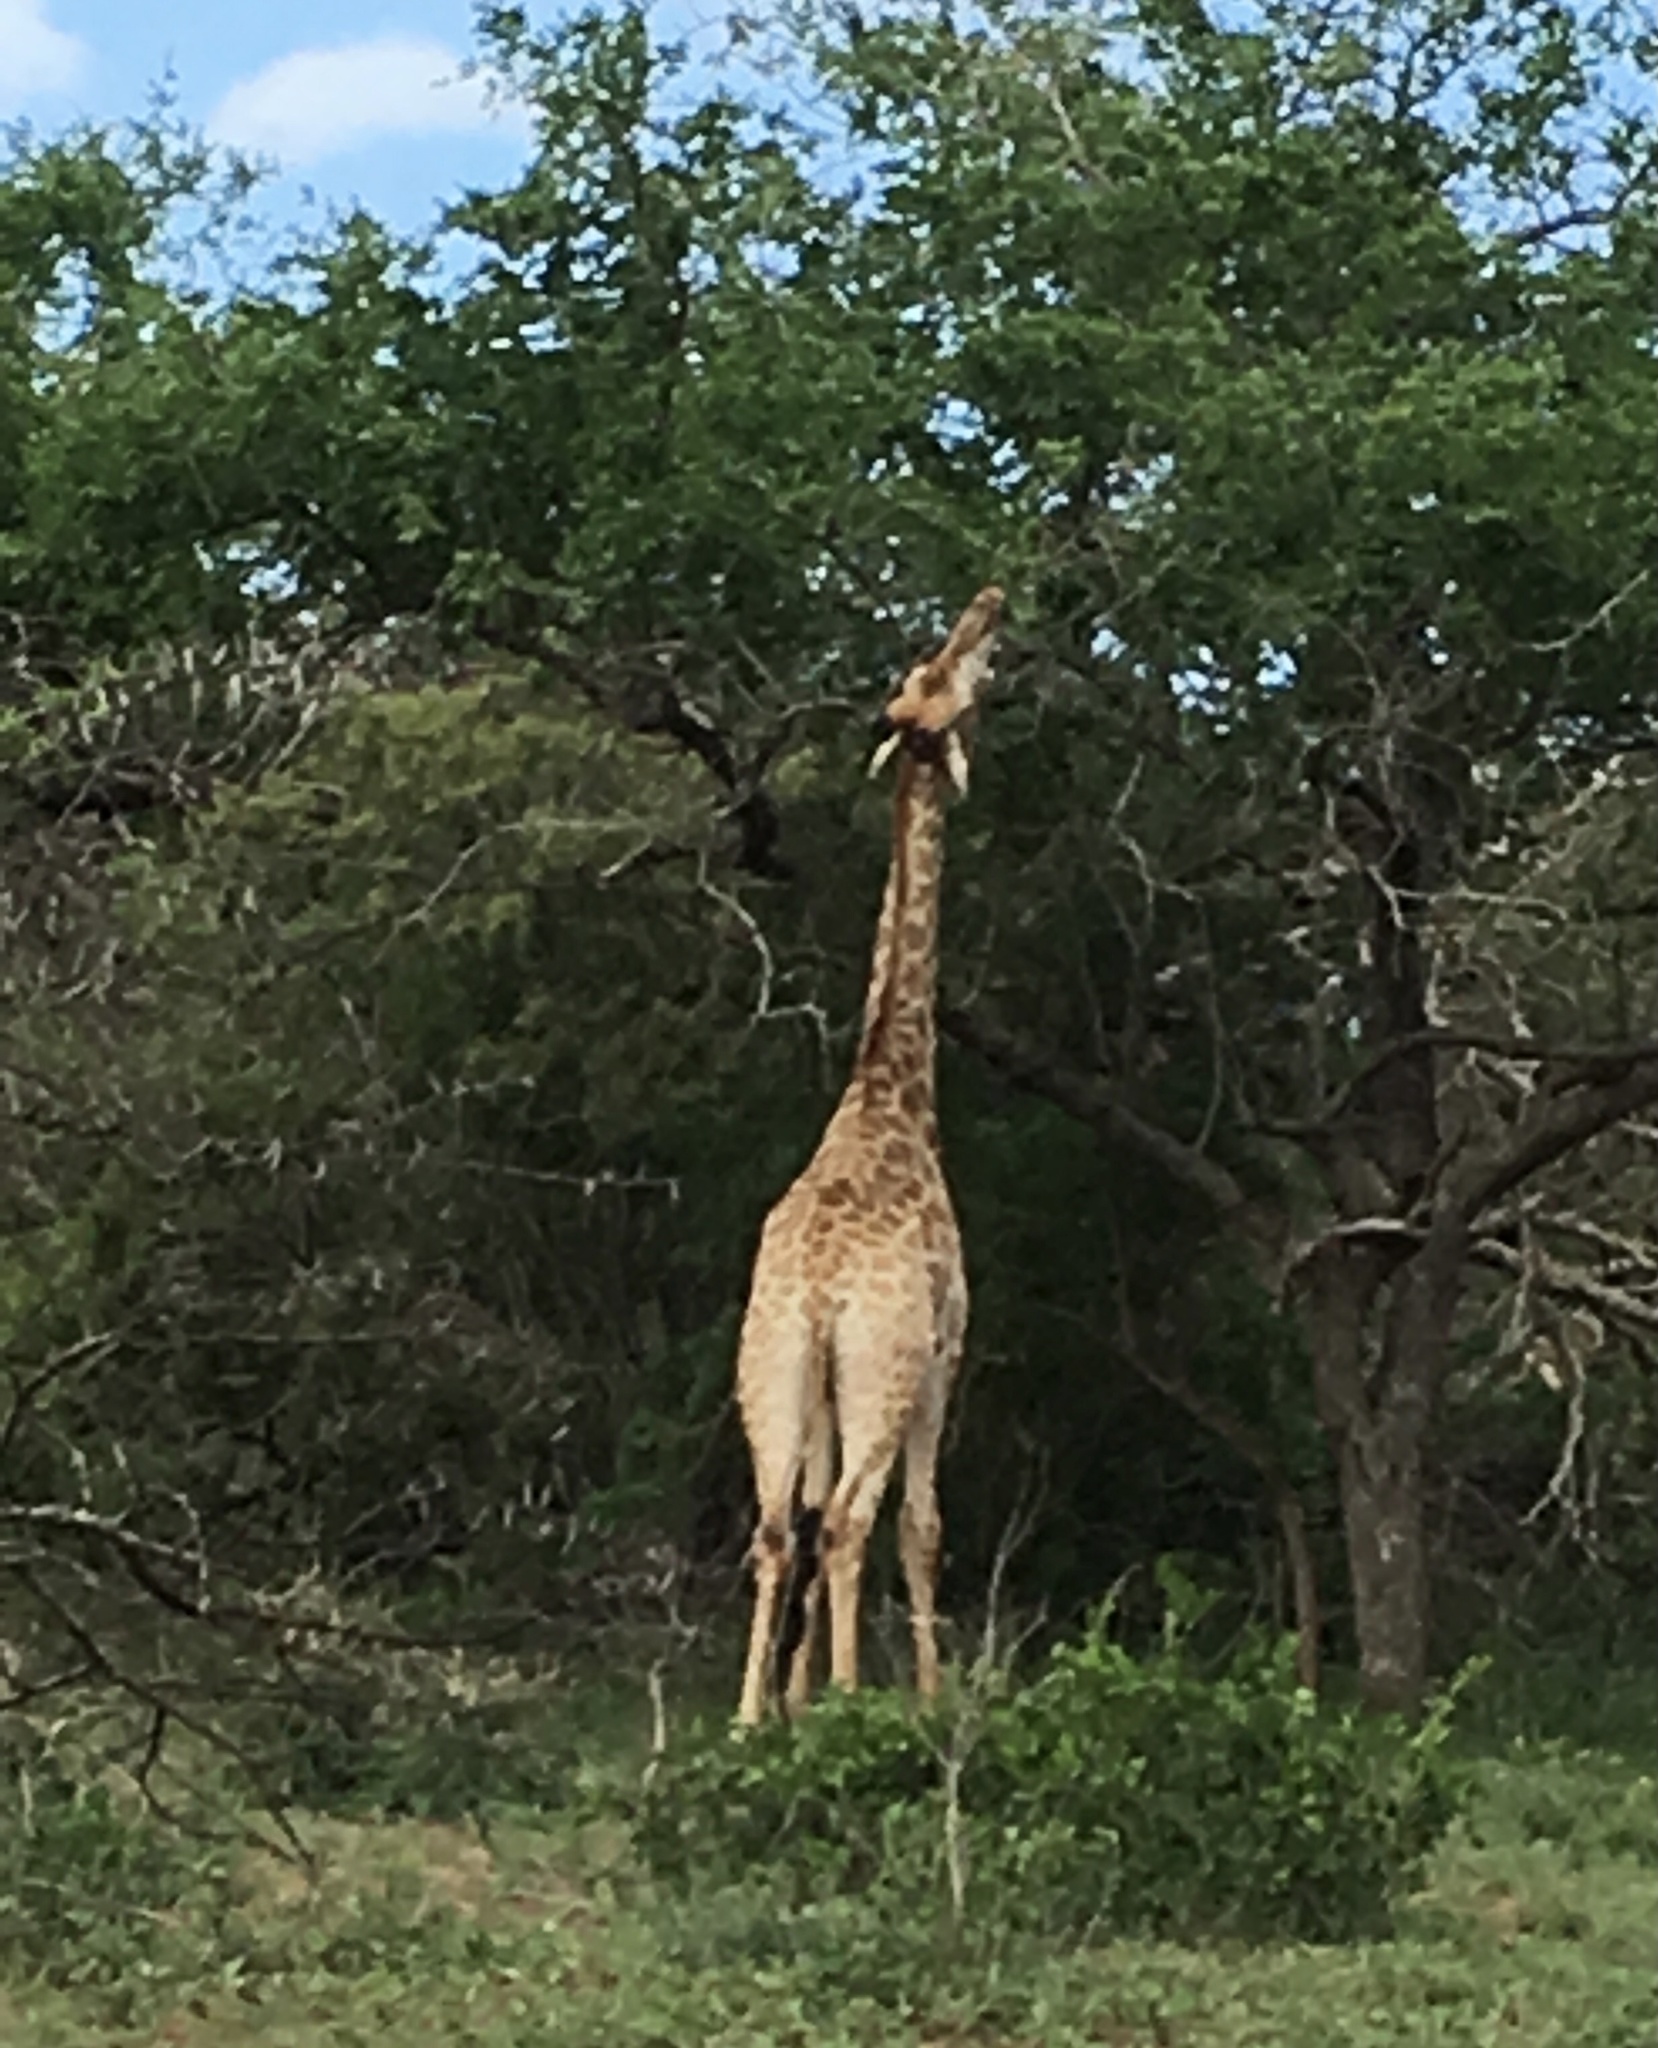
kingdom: Animalia
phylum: Chordata
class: Mammalia
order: Artiodactyla
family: Giraffidae
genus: Giraffa
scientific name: Giraffa giraffa
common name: Southern giraffe
